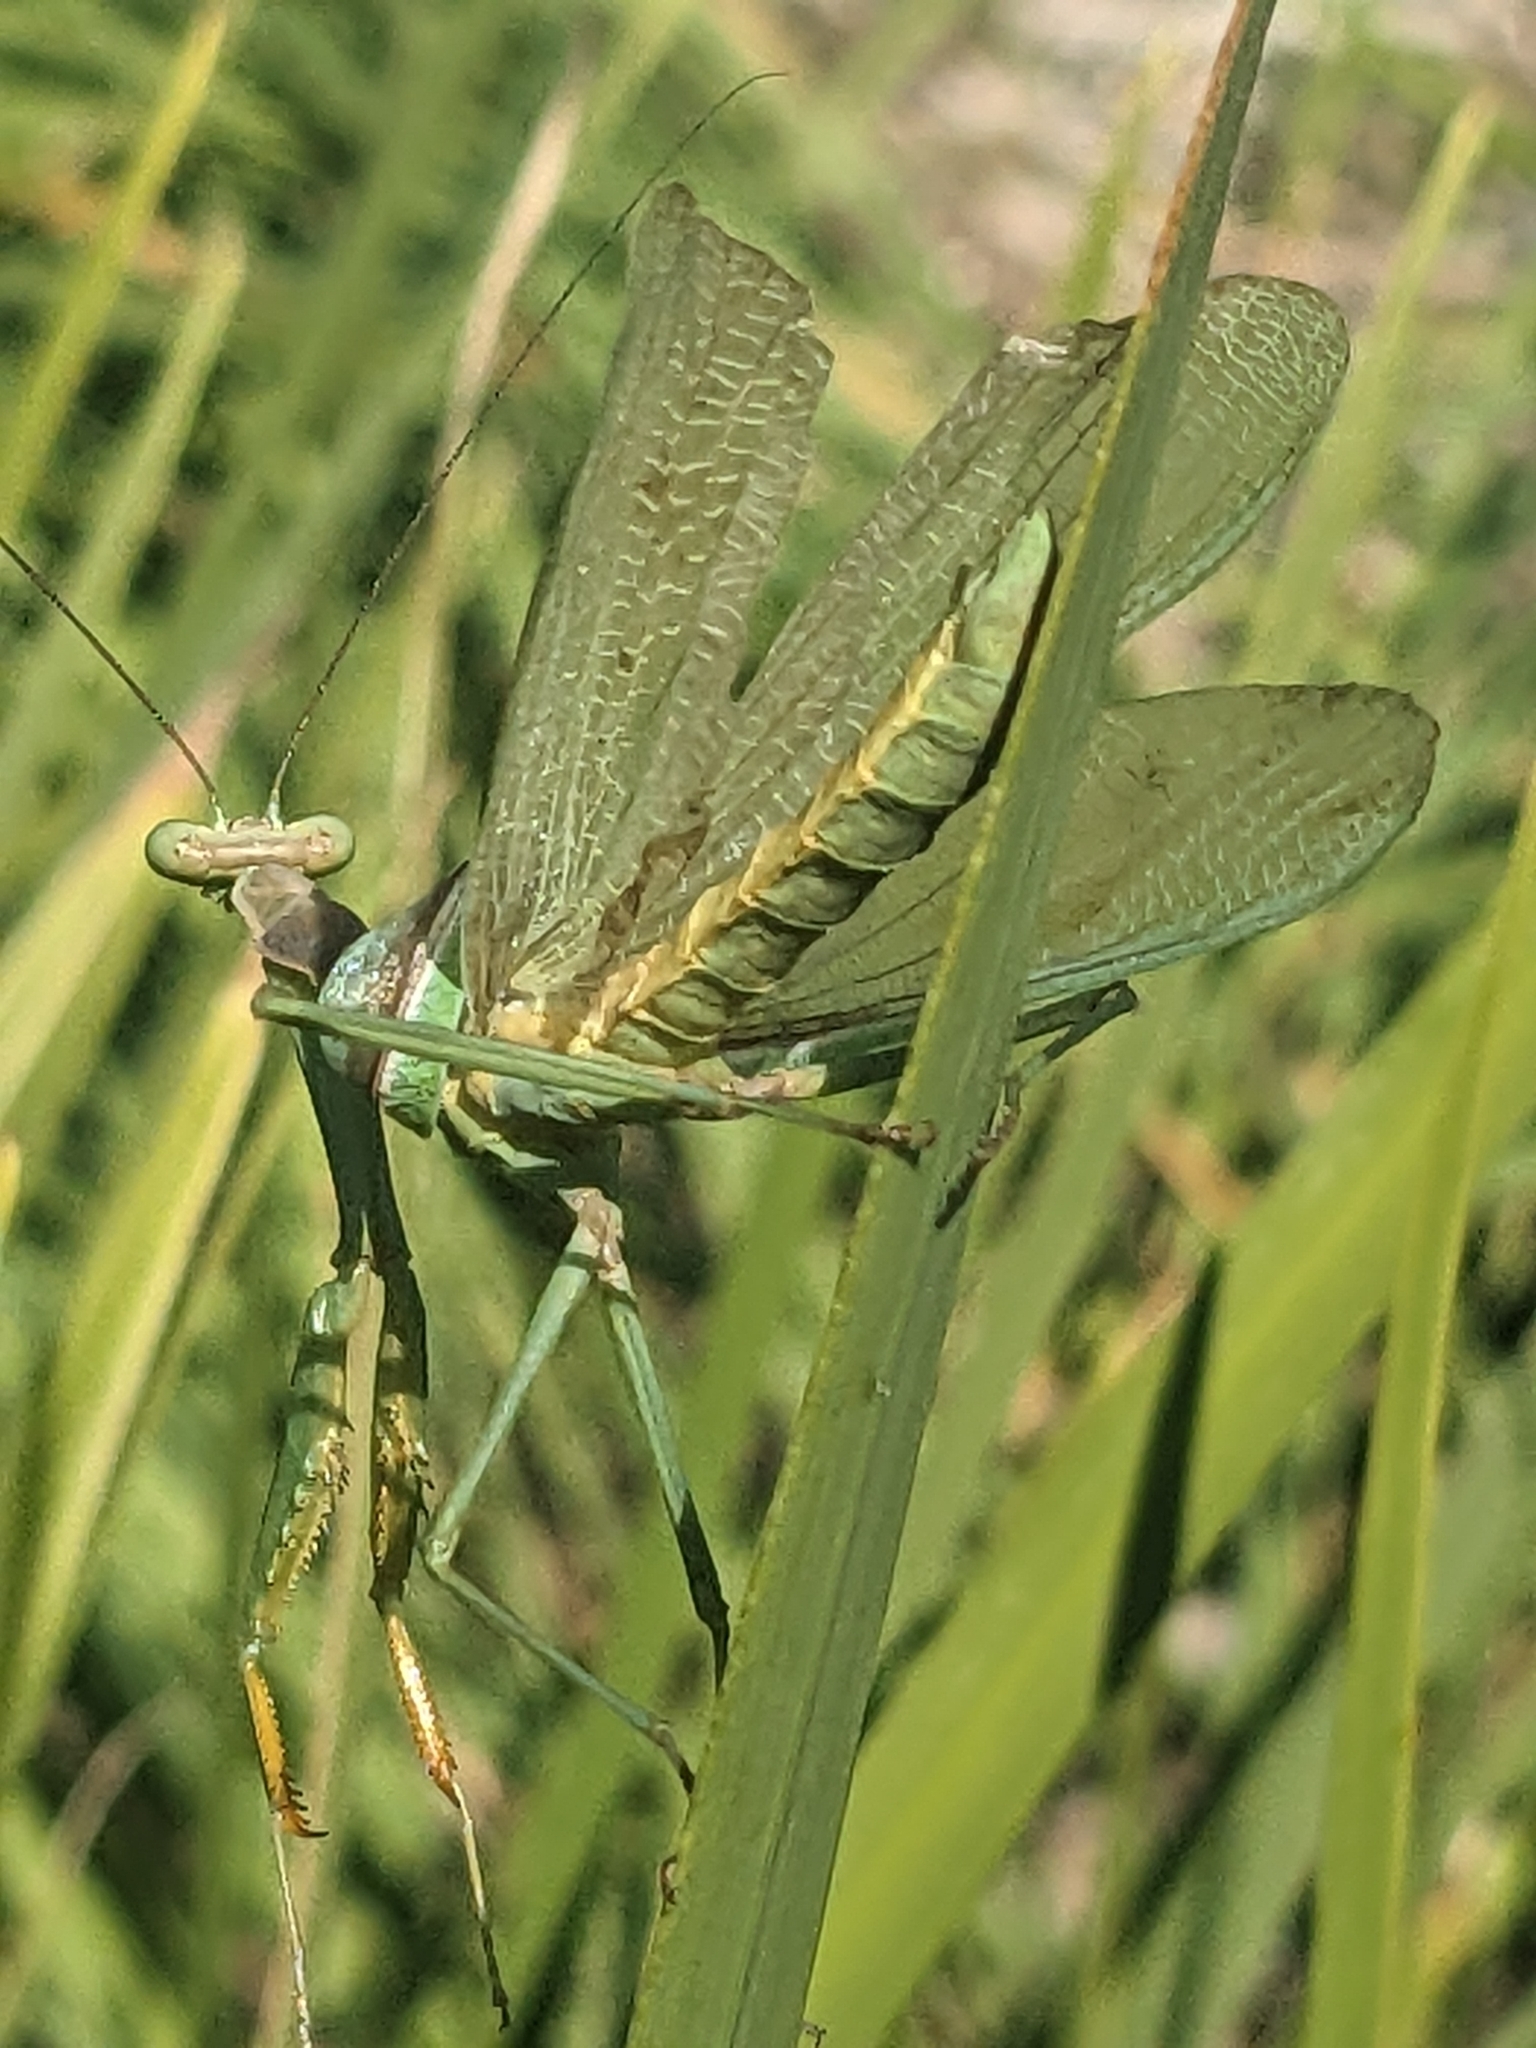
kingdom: Animalia
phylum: Arthropoda
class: Insecta
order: Mantodea
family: Mantidae
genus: Stagmomantis
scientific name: Stagmomantis limbata
